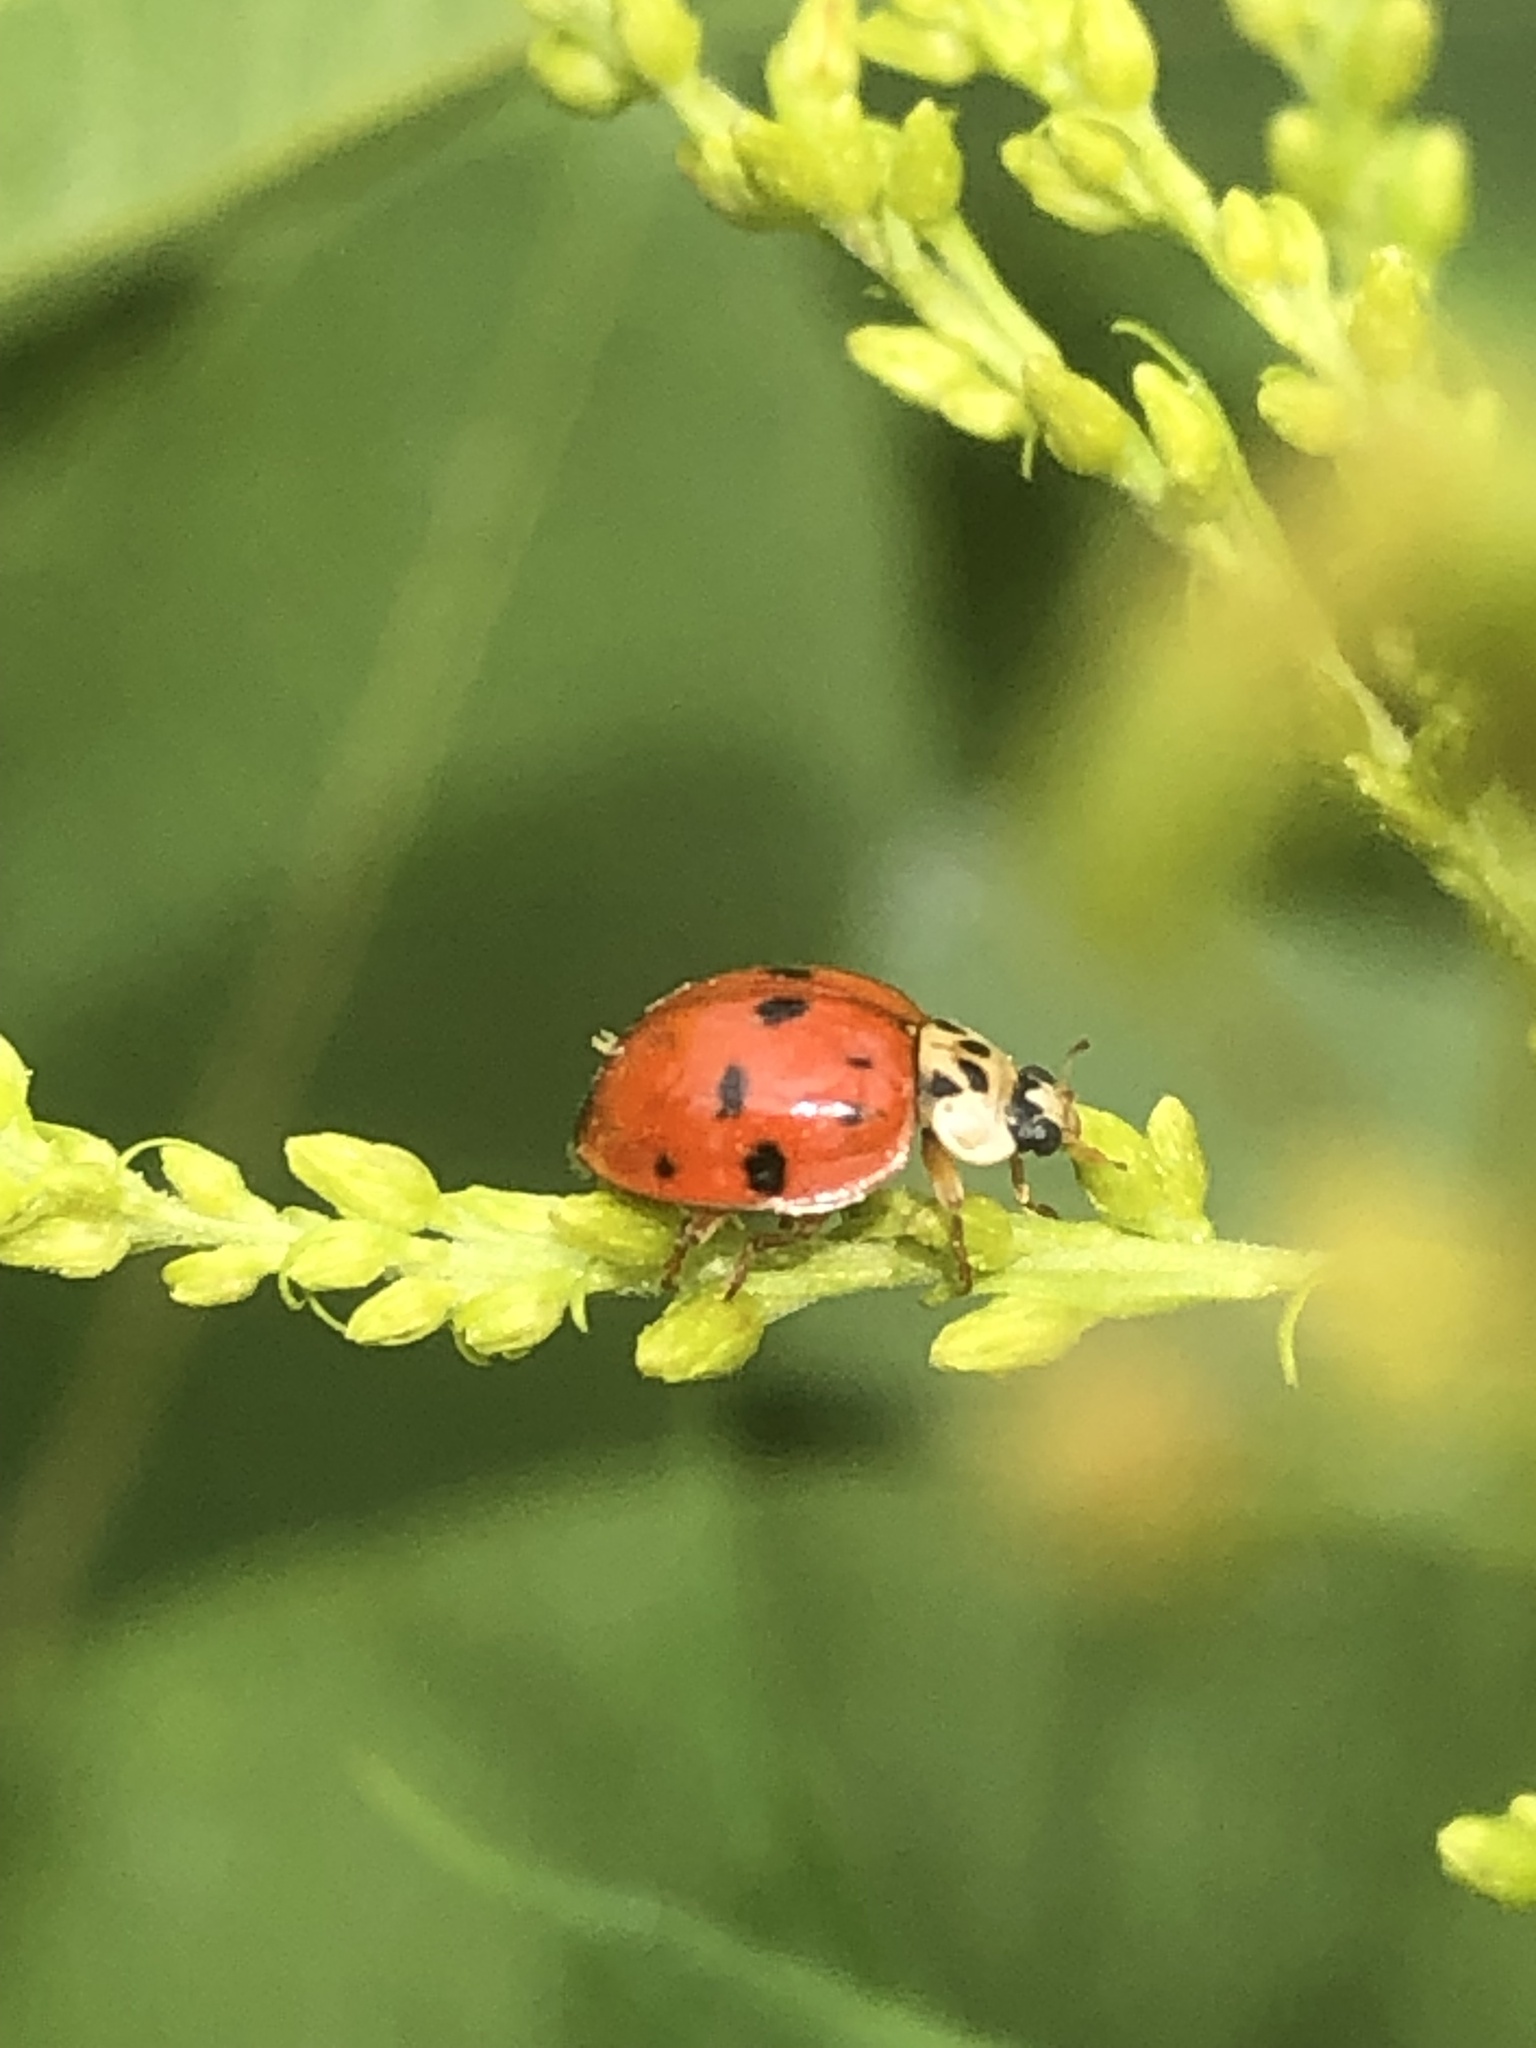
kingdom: Animalia
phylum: Arthropoda
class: Insecta
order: Coleoptera
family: Coccinellidae
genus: Harmonia
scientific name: Harmonia axyridis
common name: Harlequin ladybird
